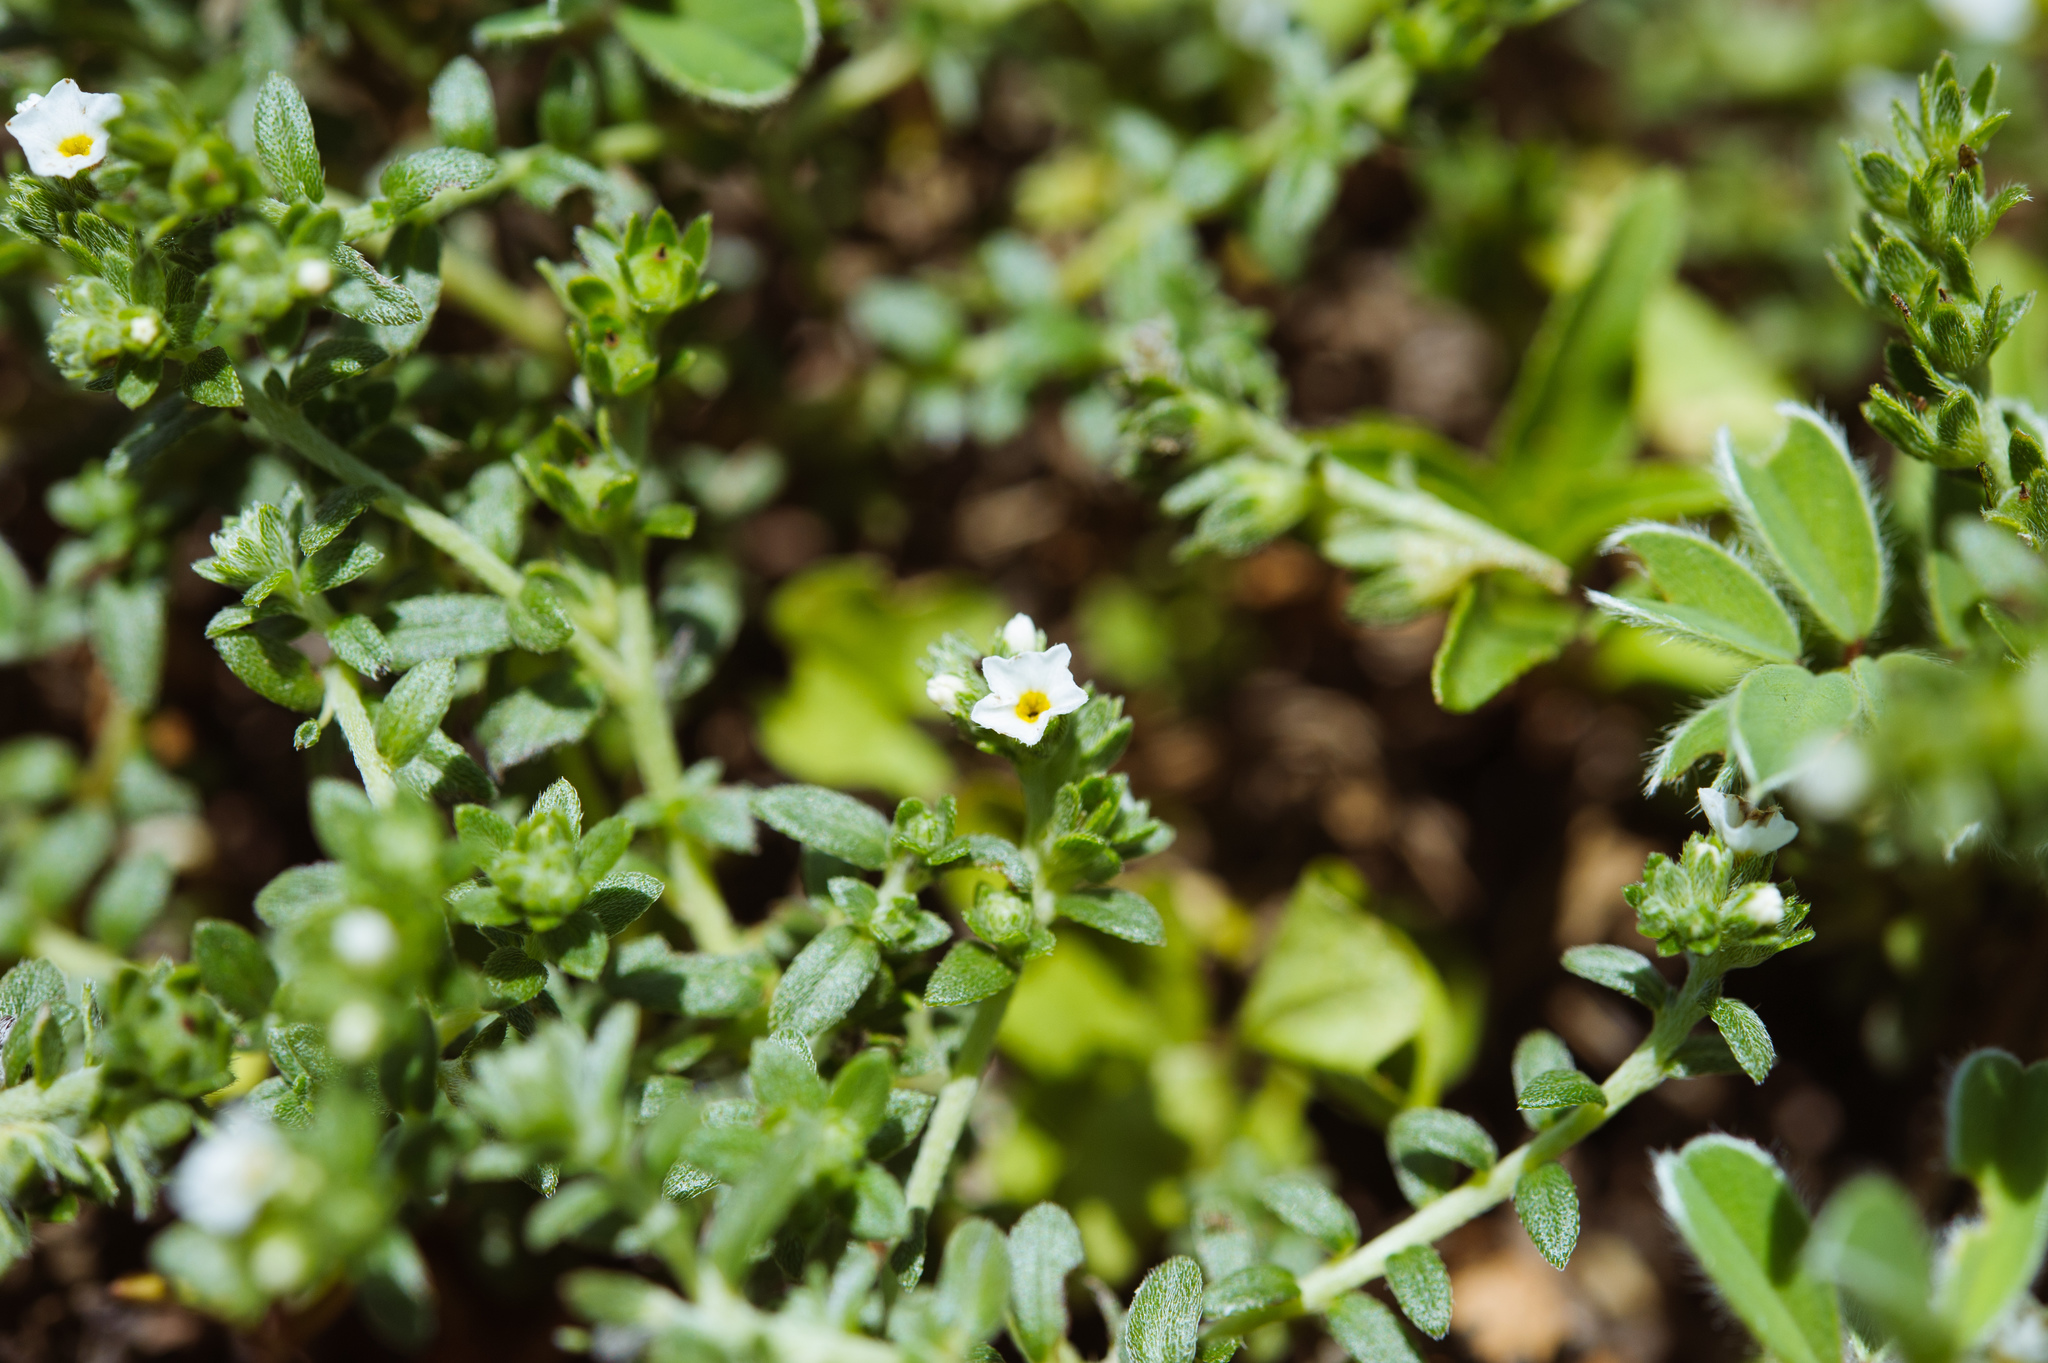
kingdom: Plantae
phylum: Tracheophyta
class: Magnoliopsida
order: Boraginales
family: Heliotropiaceae
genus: Heliotropium
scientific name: Heliotropium formosanum
